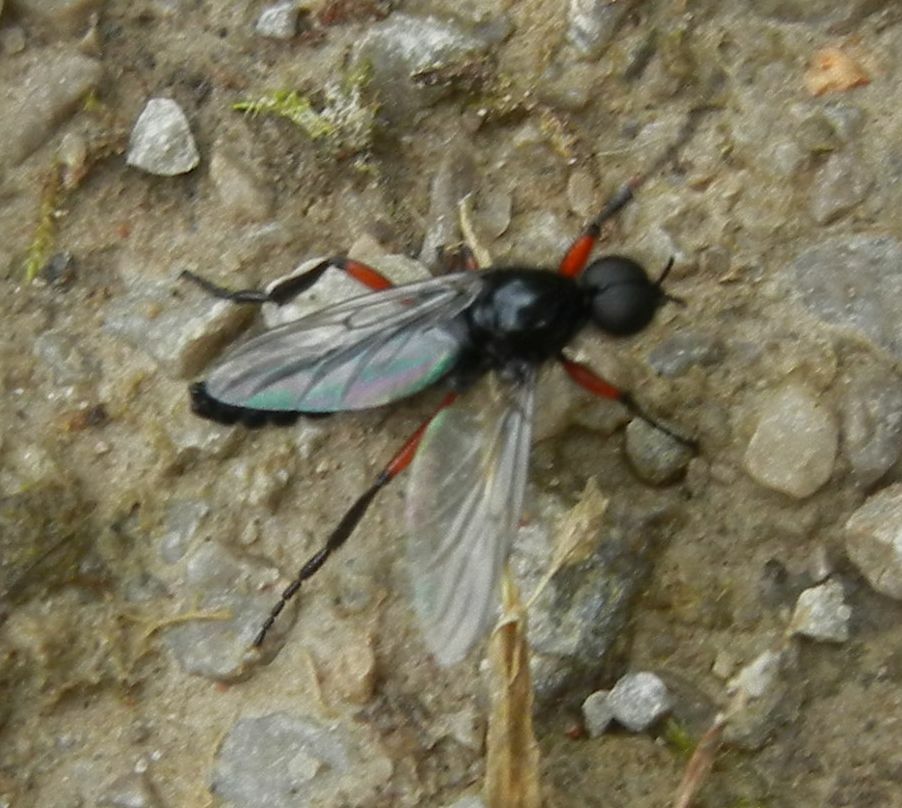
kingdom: Animalia
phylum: Arthropoda
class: Insecta
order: Diptera
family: Bibionidae
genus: Bibio
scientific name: Bibio pomonae
